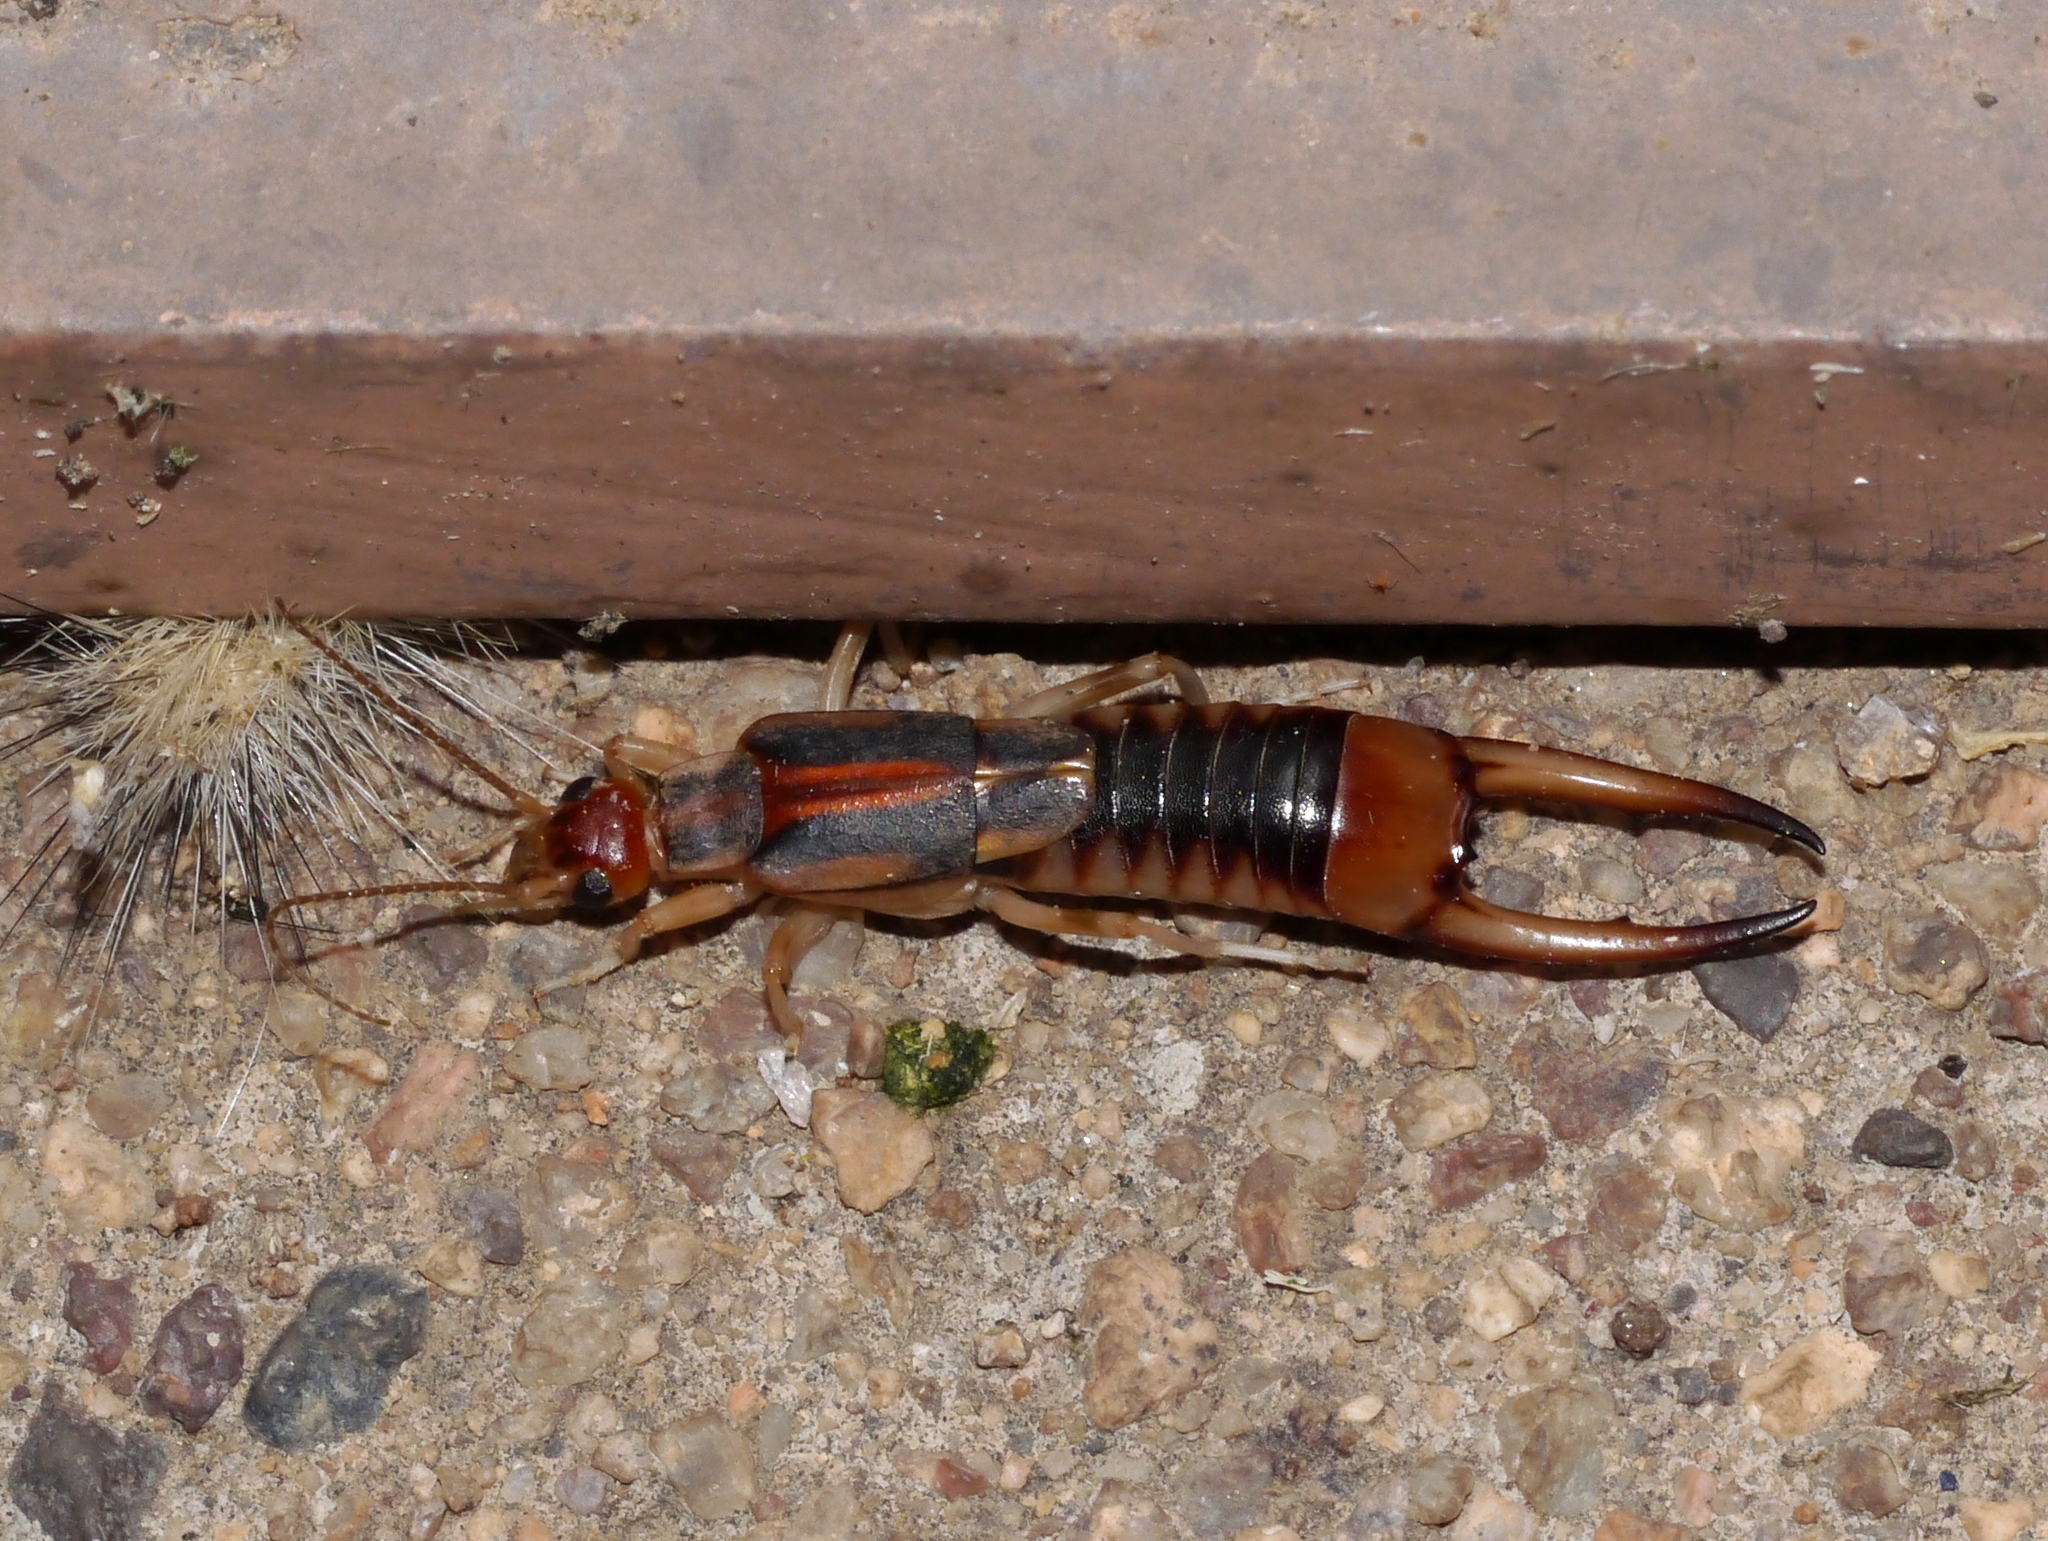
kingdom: Animalia
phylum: Arthropoda
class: Insecta
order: Dermaptera
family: Labiduridae
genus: Labidura
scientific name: Labidura riparia
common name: Striped earwig
